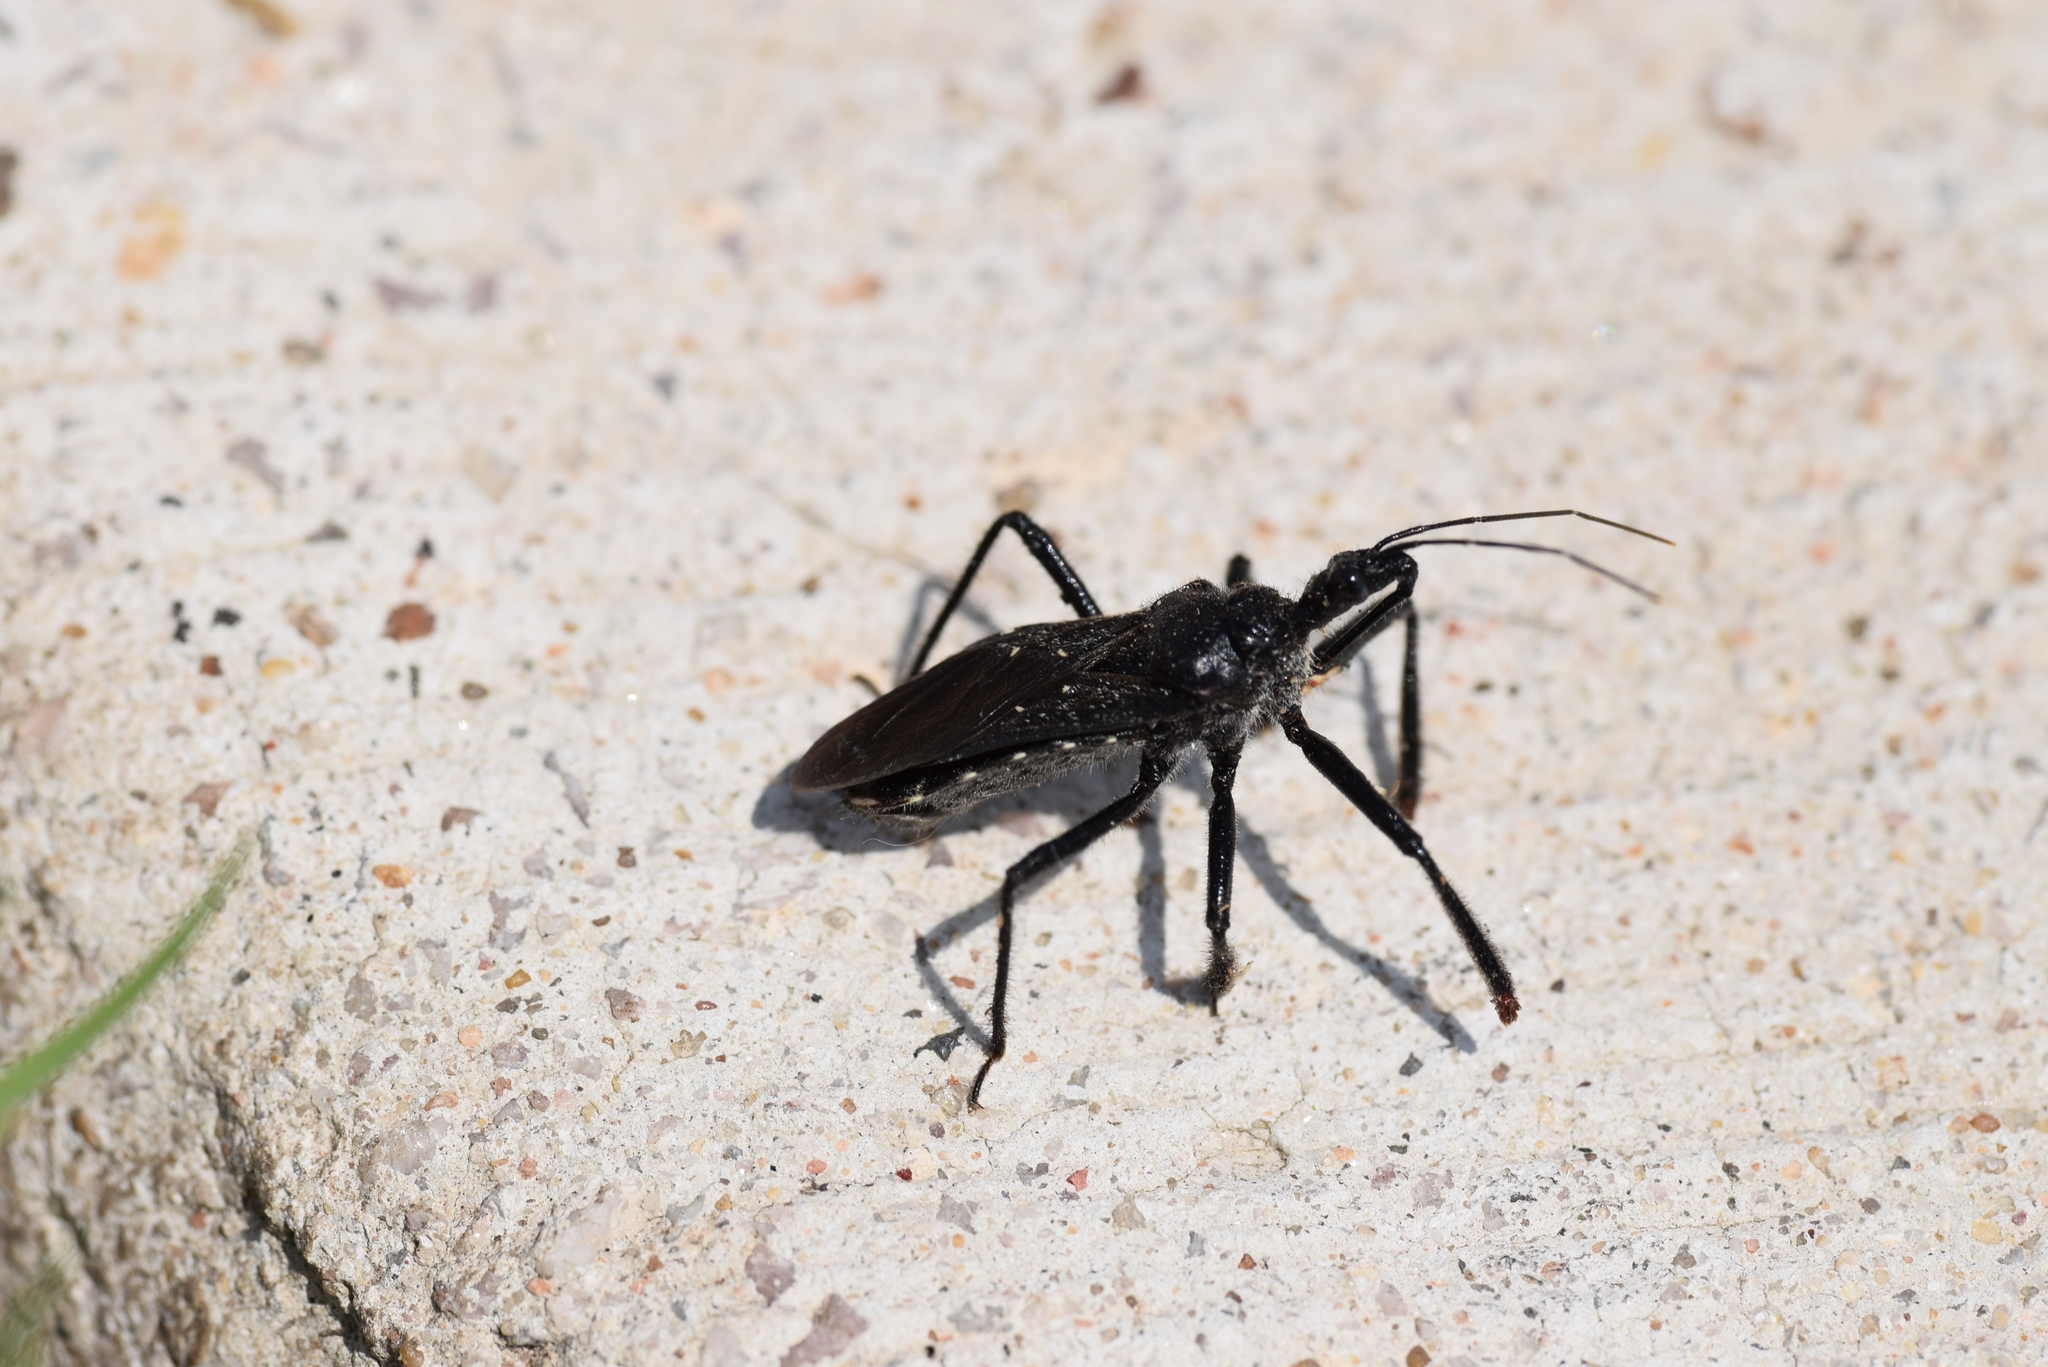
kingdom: Animalia
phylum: Arthropoda
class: Insecta
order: Hemiptera
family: Reduviidae
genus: Apiomerus
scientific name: Apiomerus longispinis
